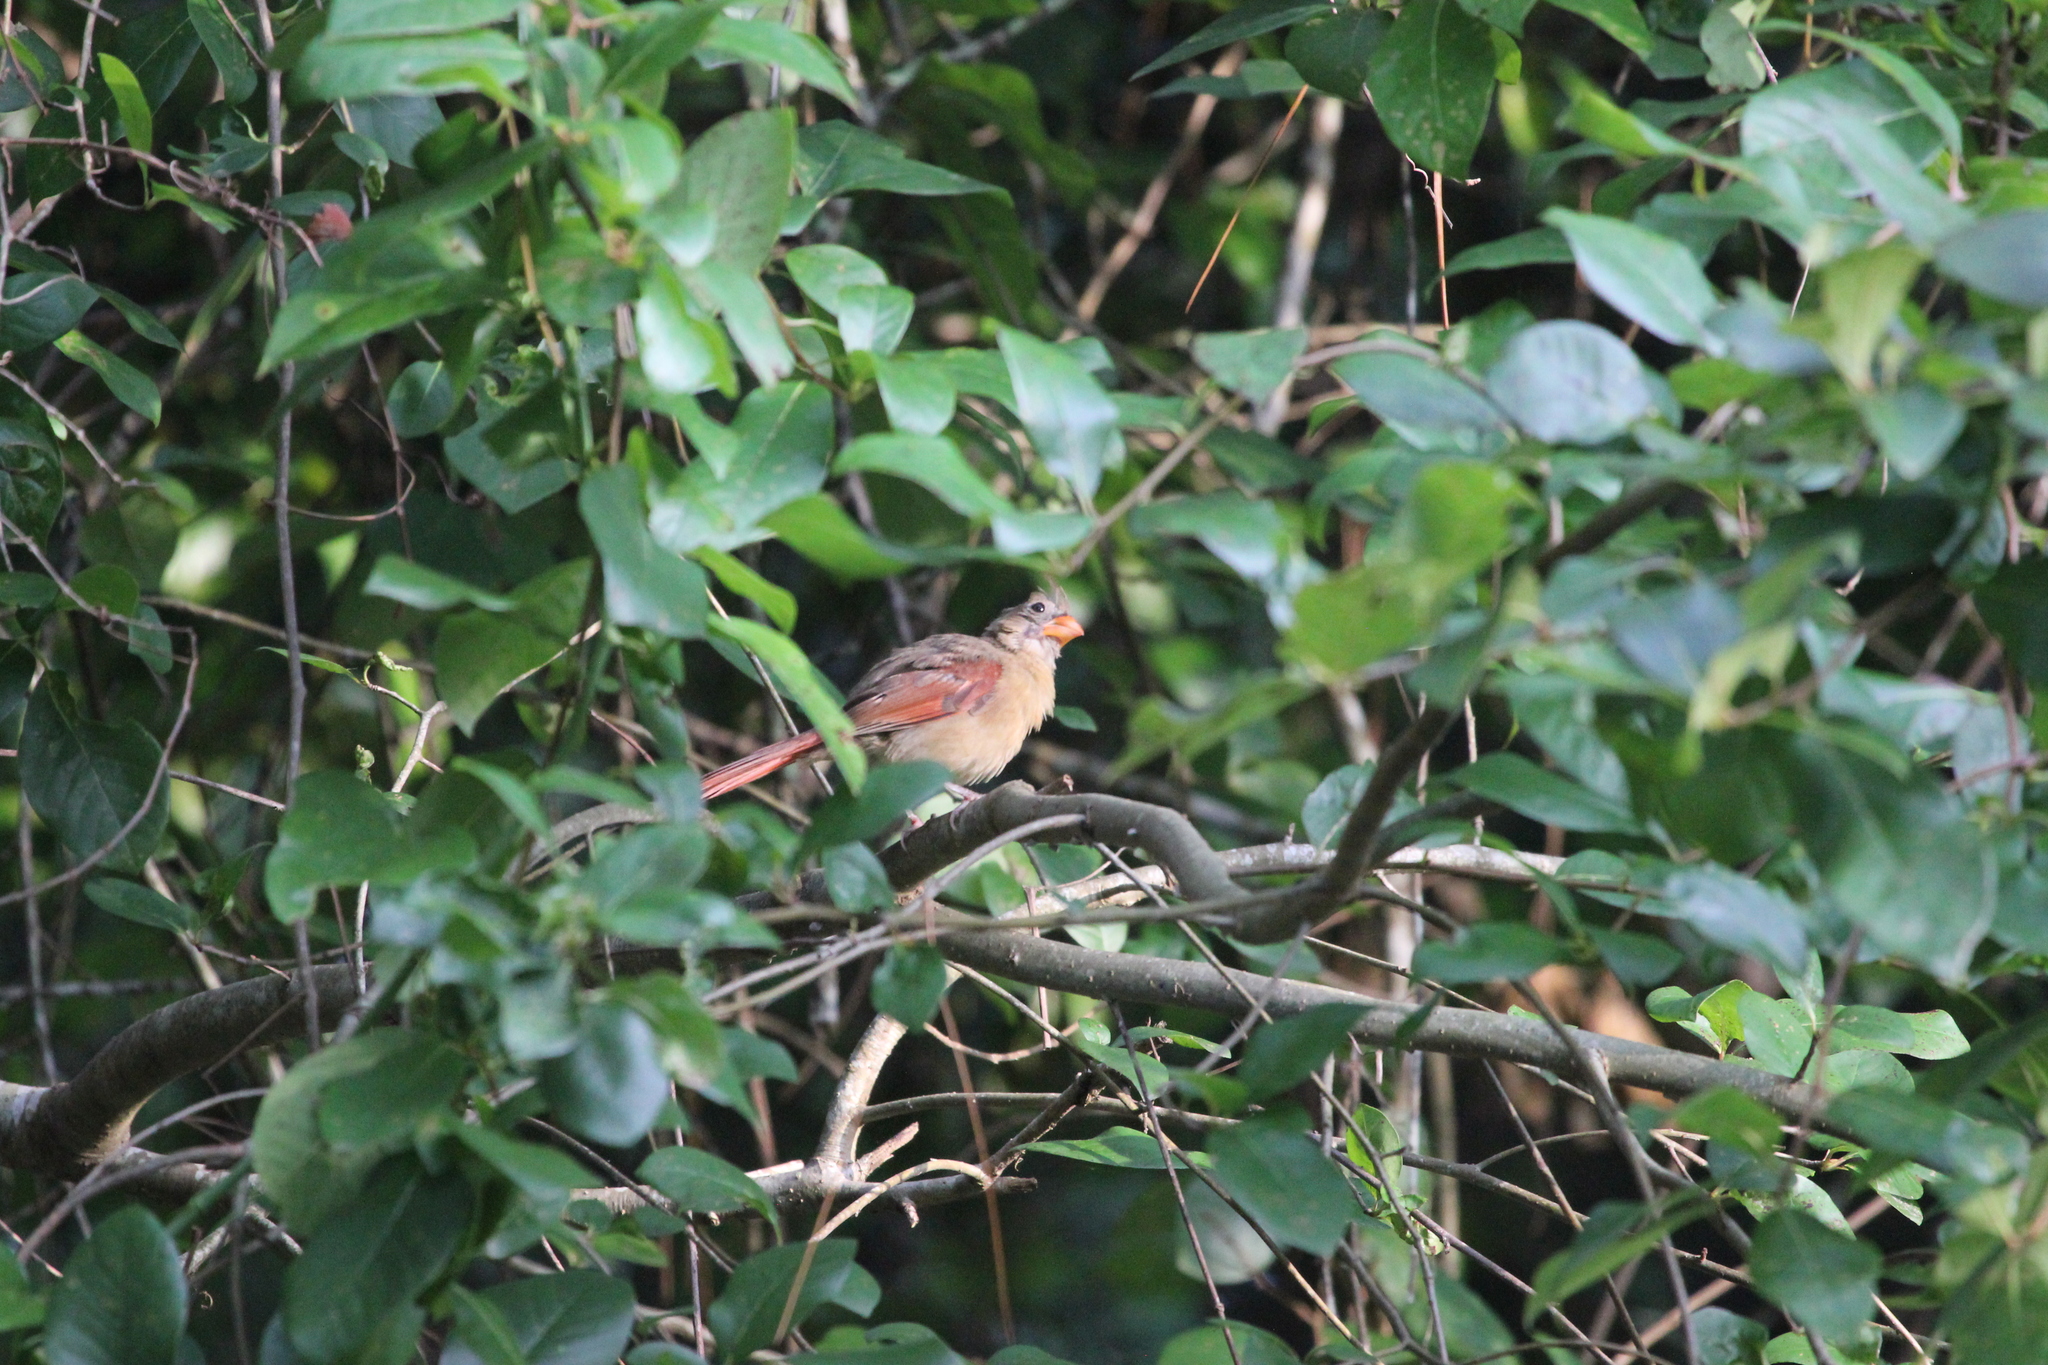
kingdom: Animalia
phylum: Chordata
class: Aves
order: Passeriformes
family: Cardinalidae
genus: Cardinalis
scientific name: Cardinalis cardinalis
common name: Northern cardinal
